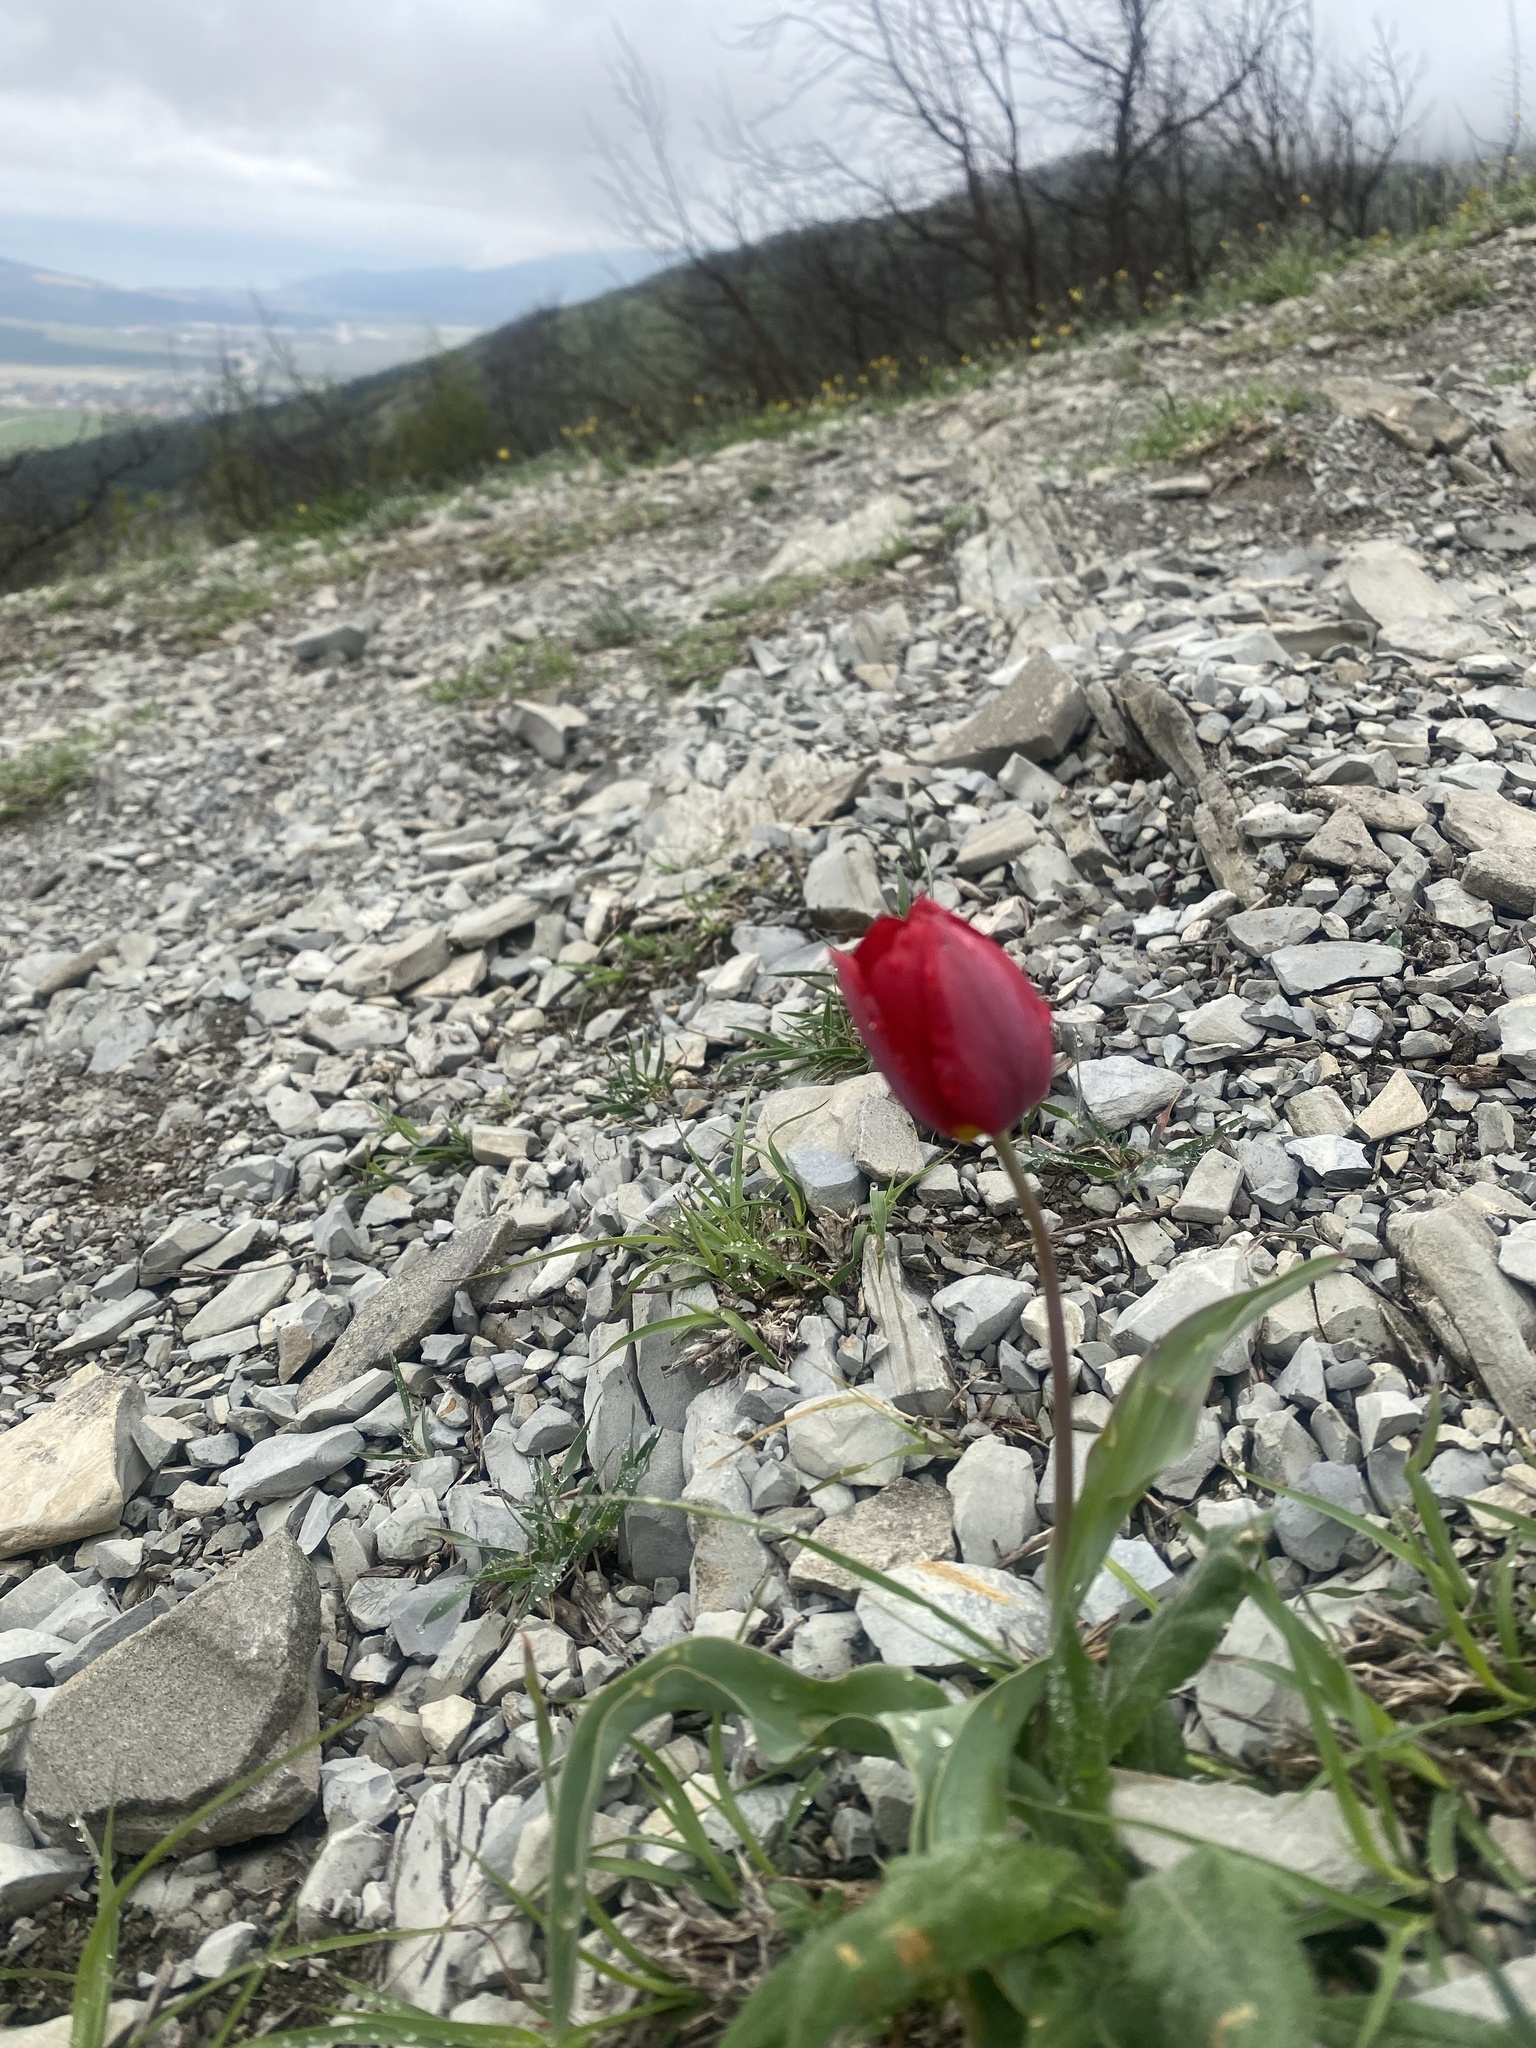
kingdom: Plantae
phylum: Tracheophyta
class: Liliopsida
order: Liliales
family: Liliaceae
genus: Tulipa
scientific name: Tulipa suaveolens
